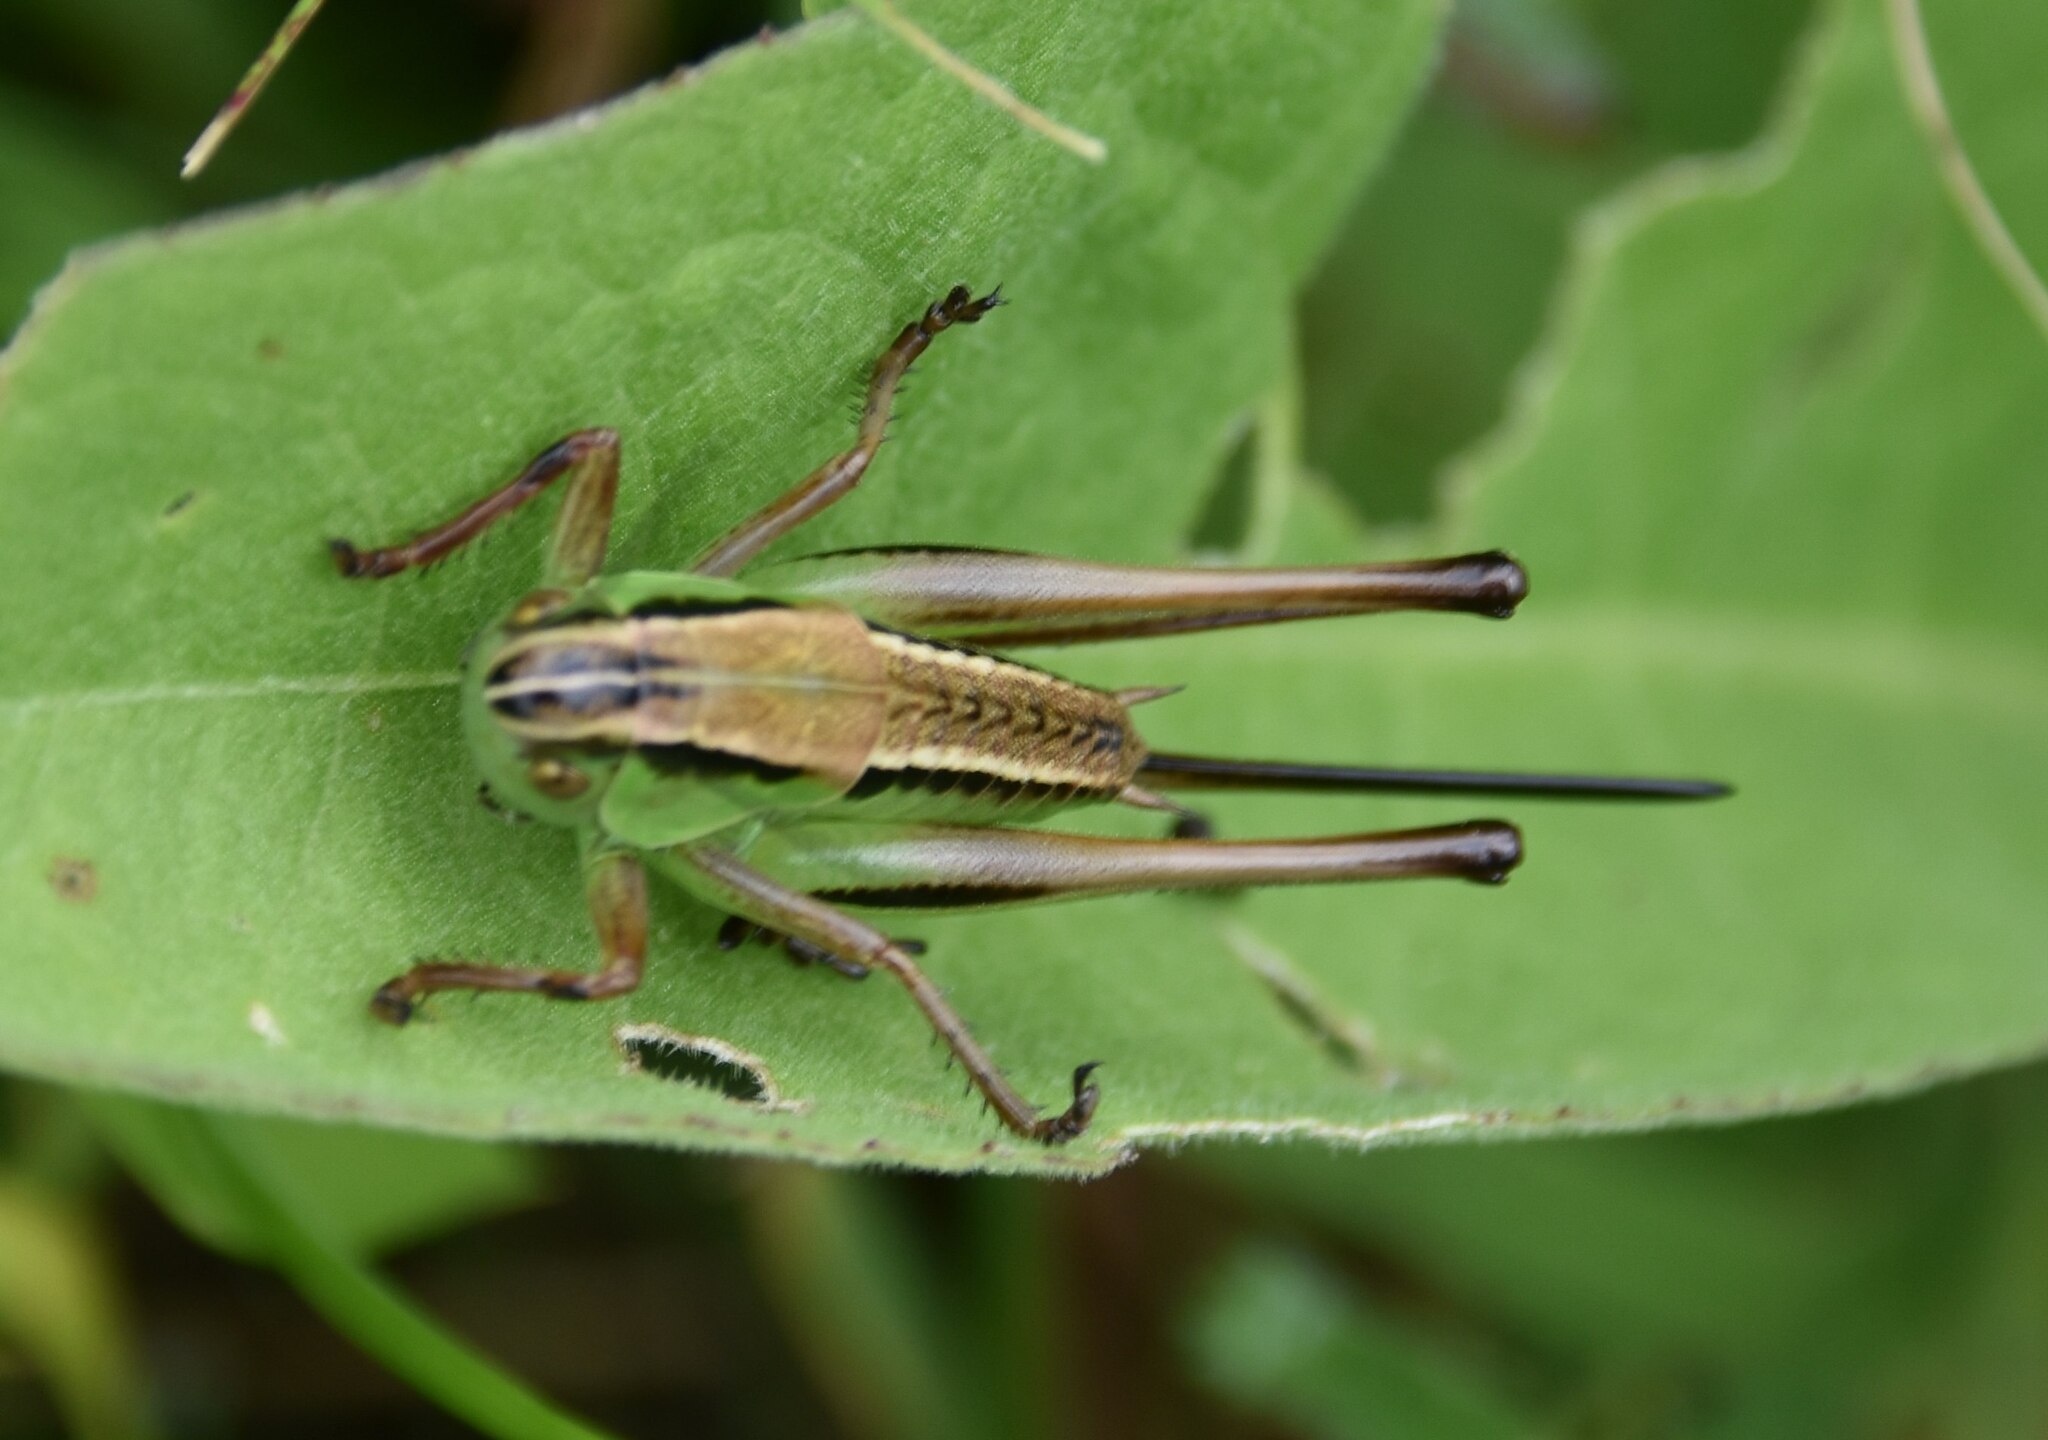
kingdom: Animalia
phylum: Arthropoda
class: Insecta
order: Orthoptera
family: Tettigoniidae
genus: Pholidoptera
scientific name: Pholidoptera frivaldszkyi
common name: Green dark bush-cricket
